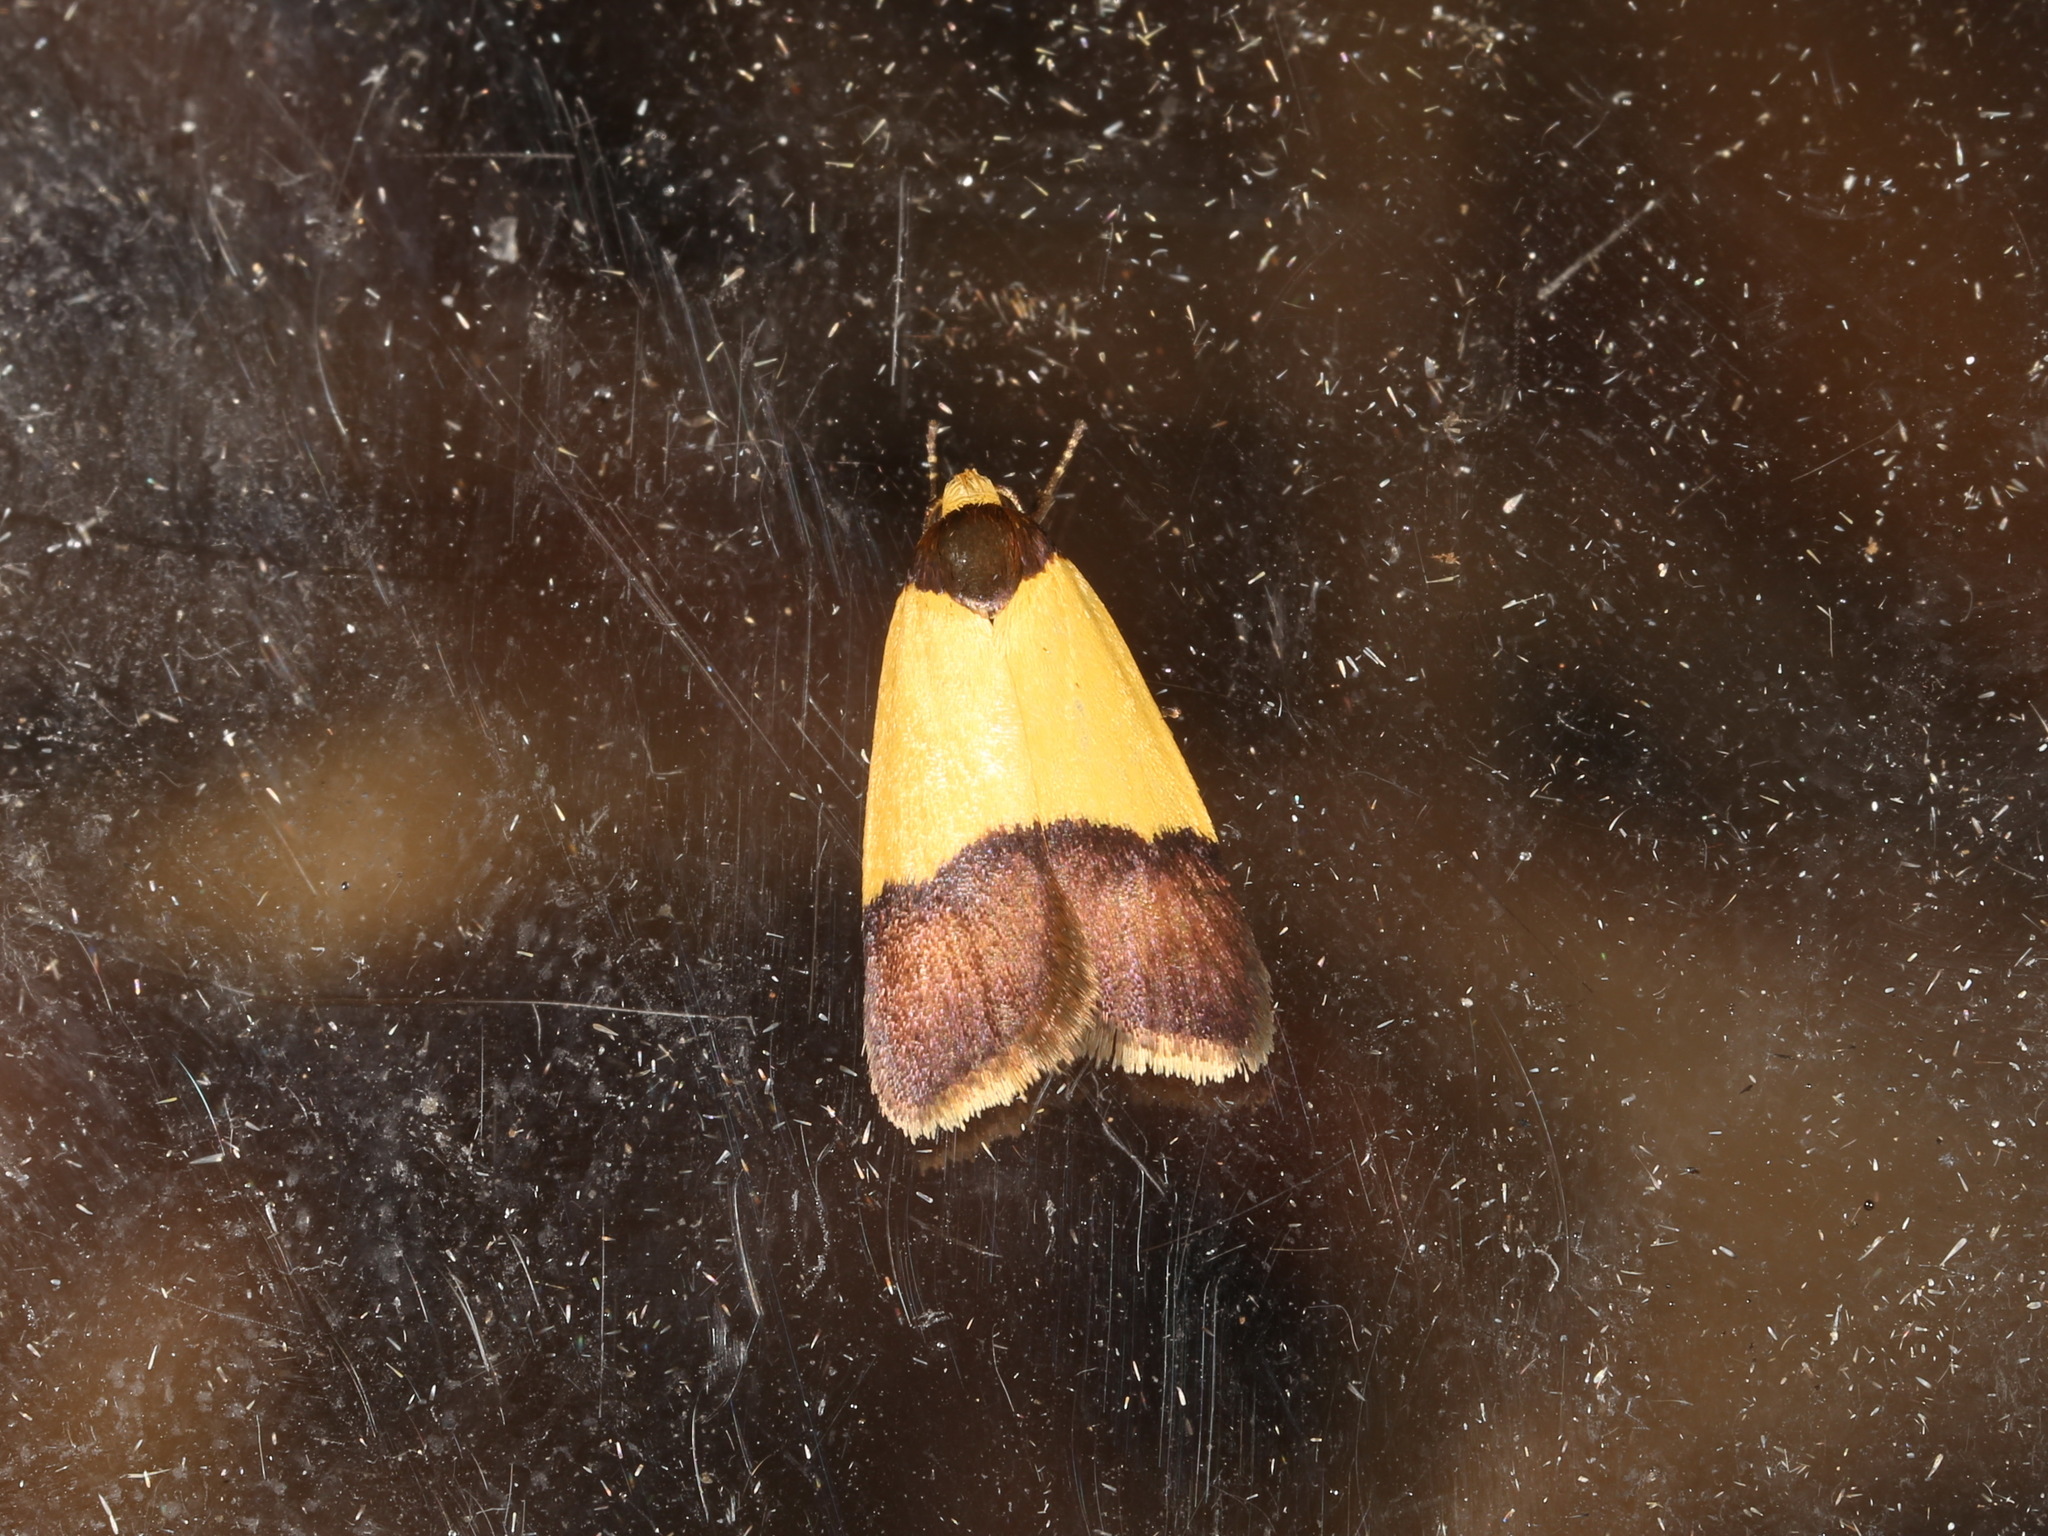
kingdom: Animalia
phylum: Arthropoda
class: Insecta
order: Lepidoptera
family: Oecophoridae
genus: Heteroteucha
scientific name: Heteroteucha dichroella
